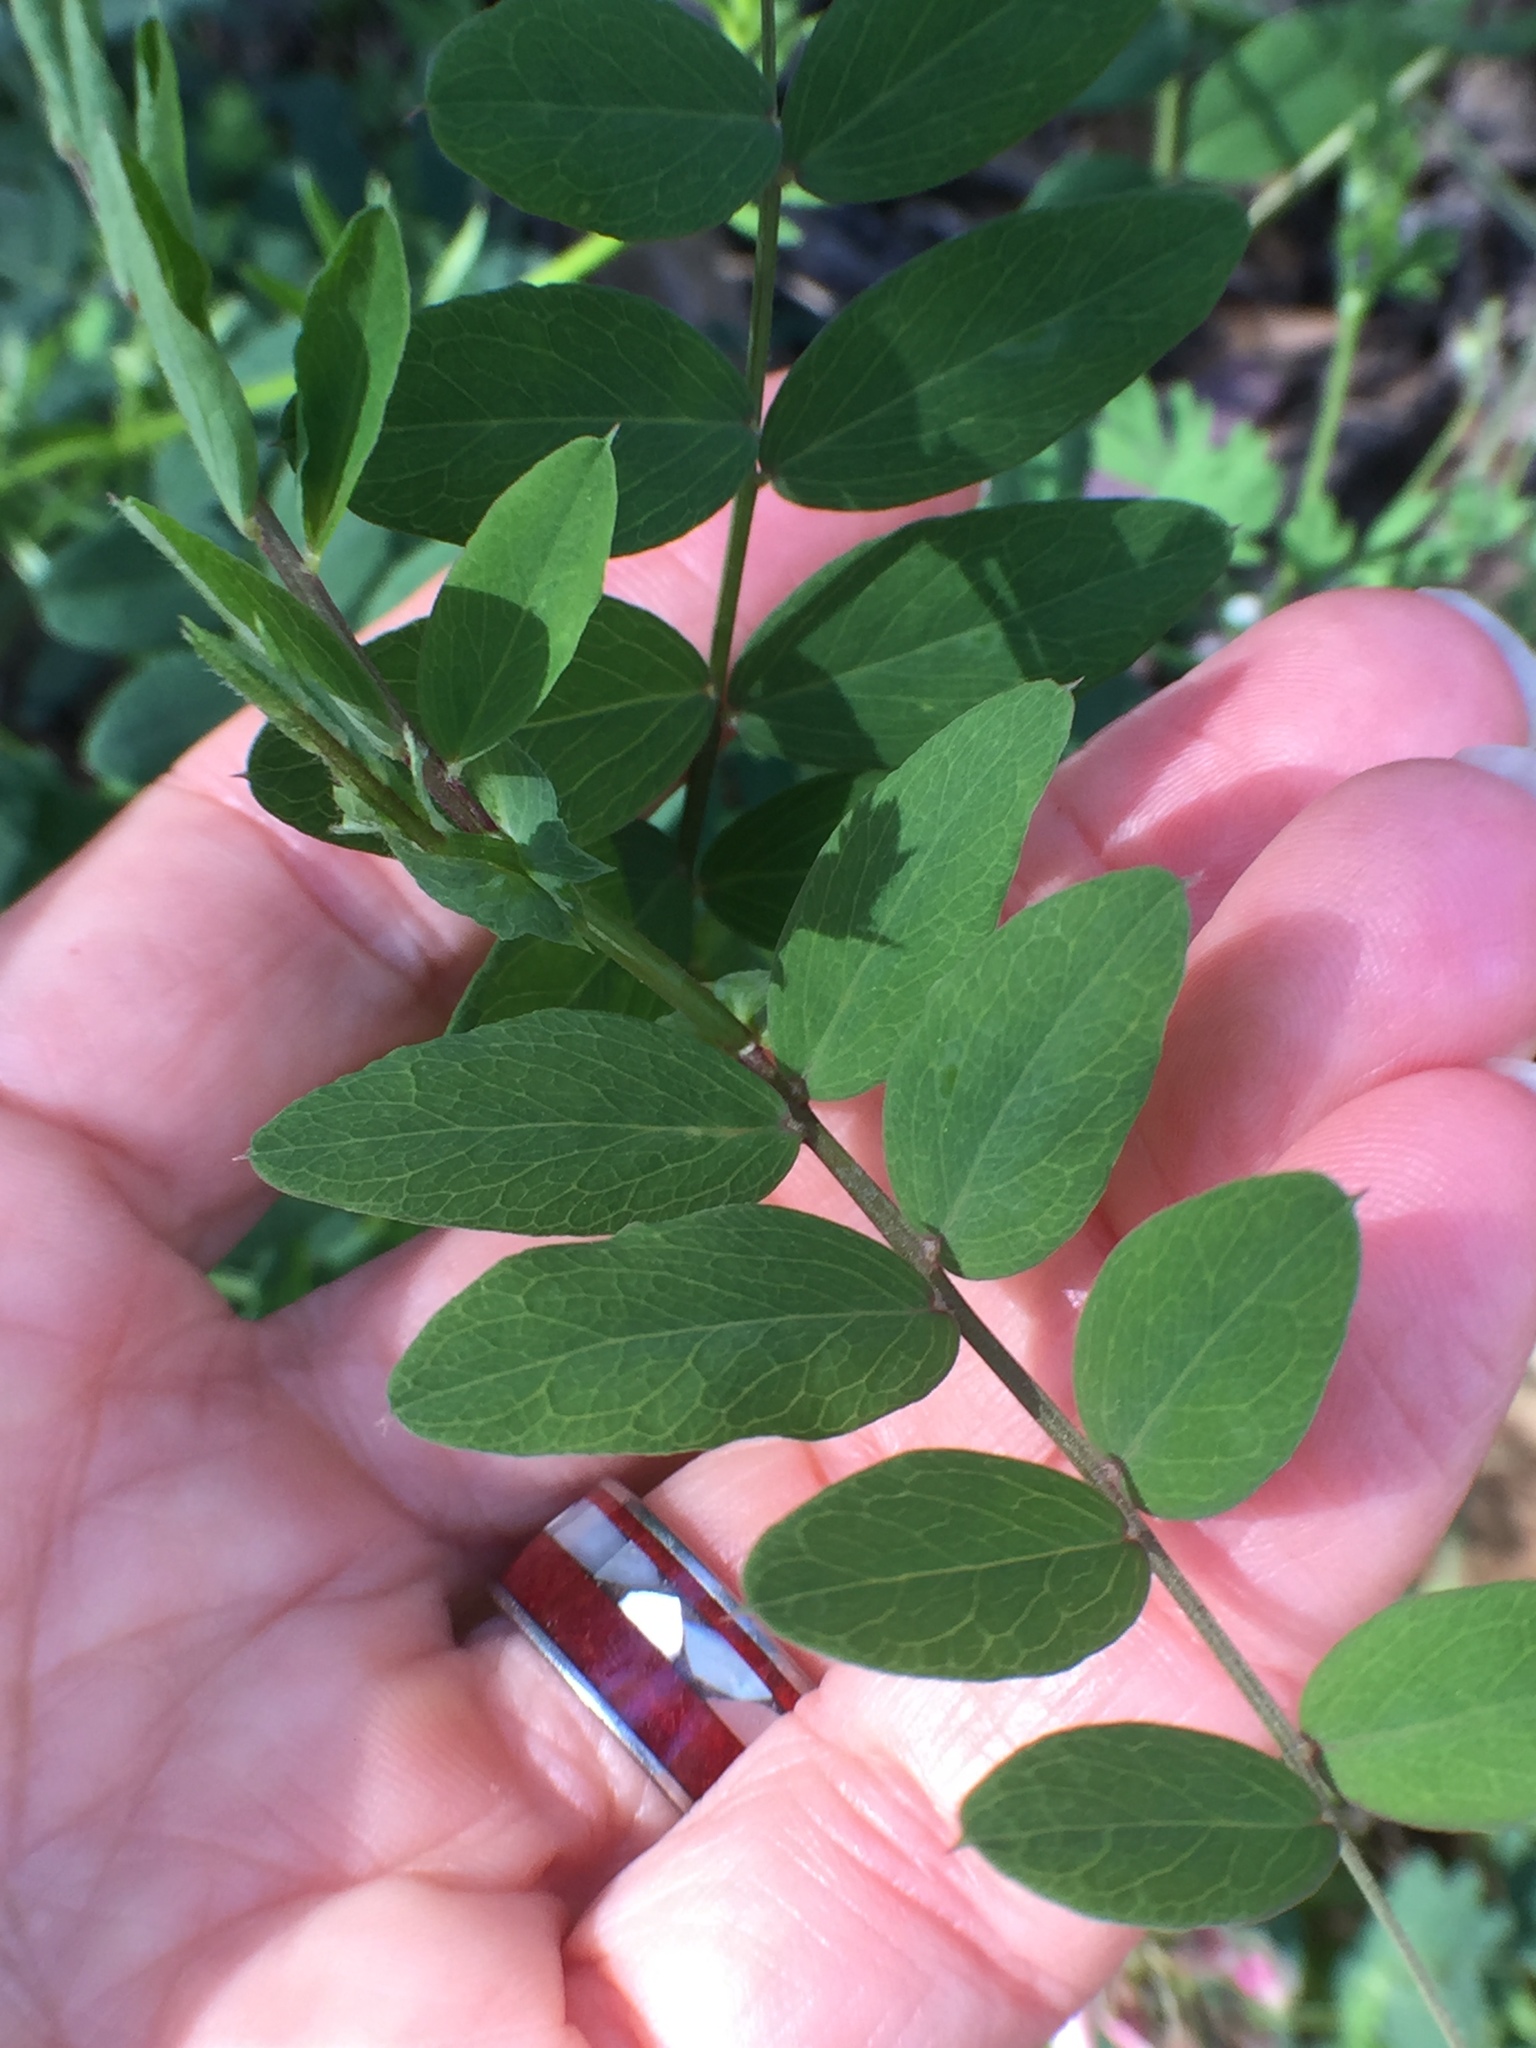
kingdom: Plantae
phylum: Tracheophyta
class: Magnoliopsida
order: Fabales
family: Fabaceae
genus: Lathyrus
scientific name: Lathyrus vestitus
